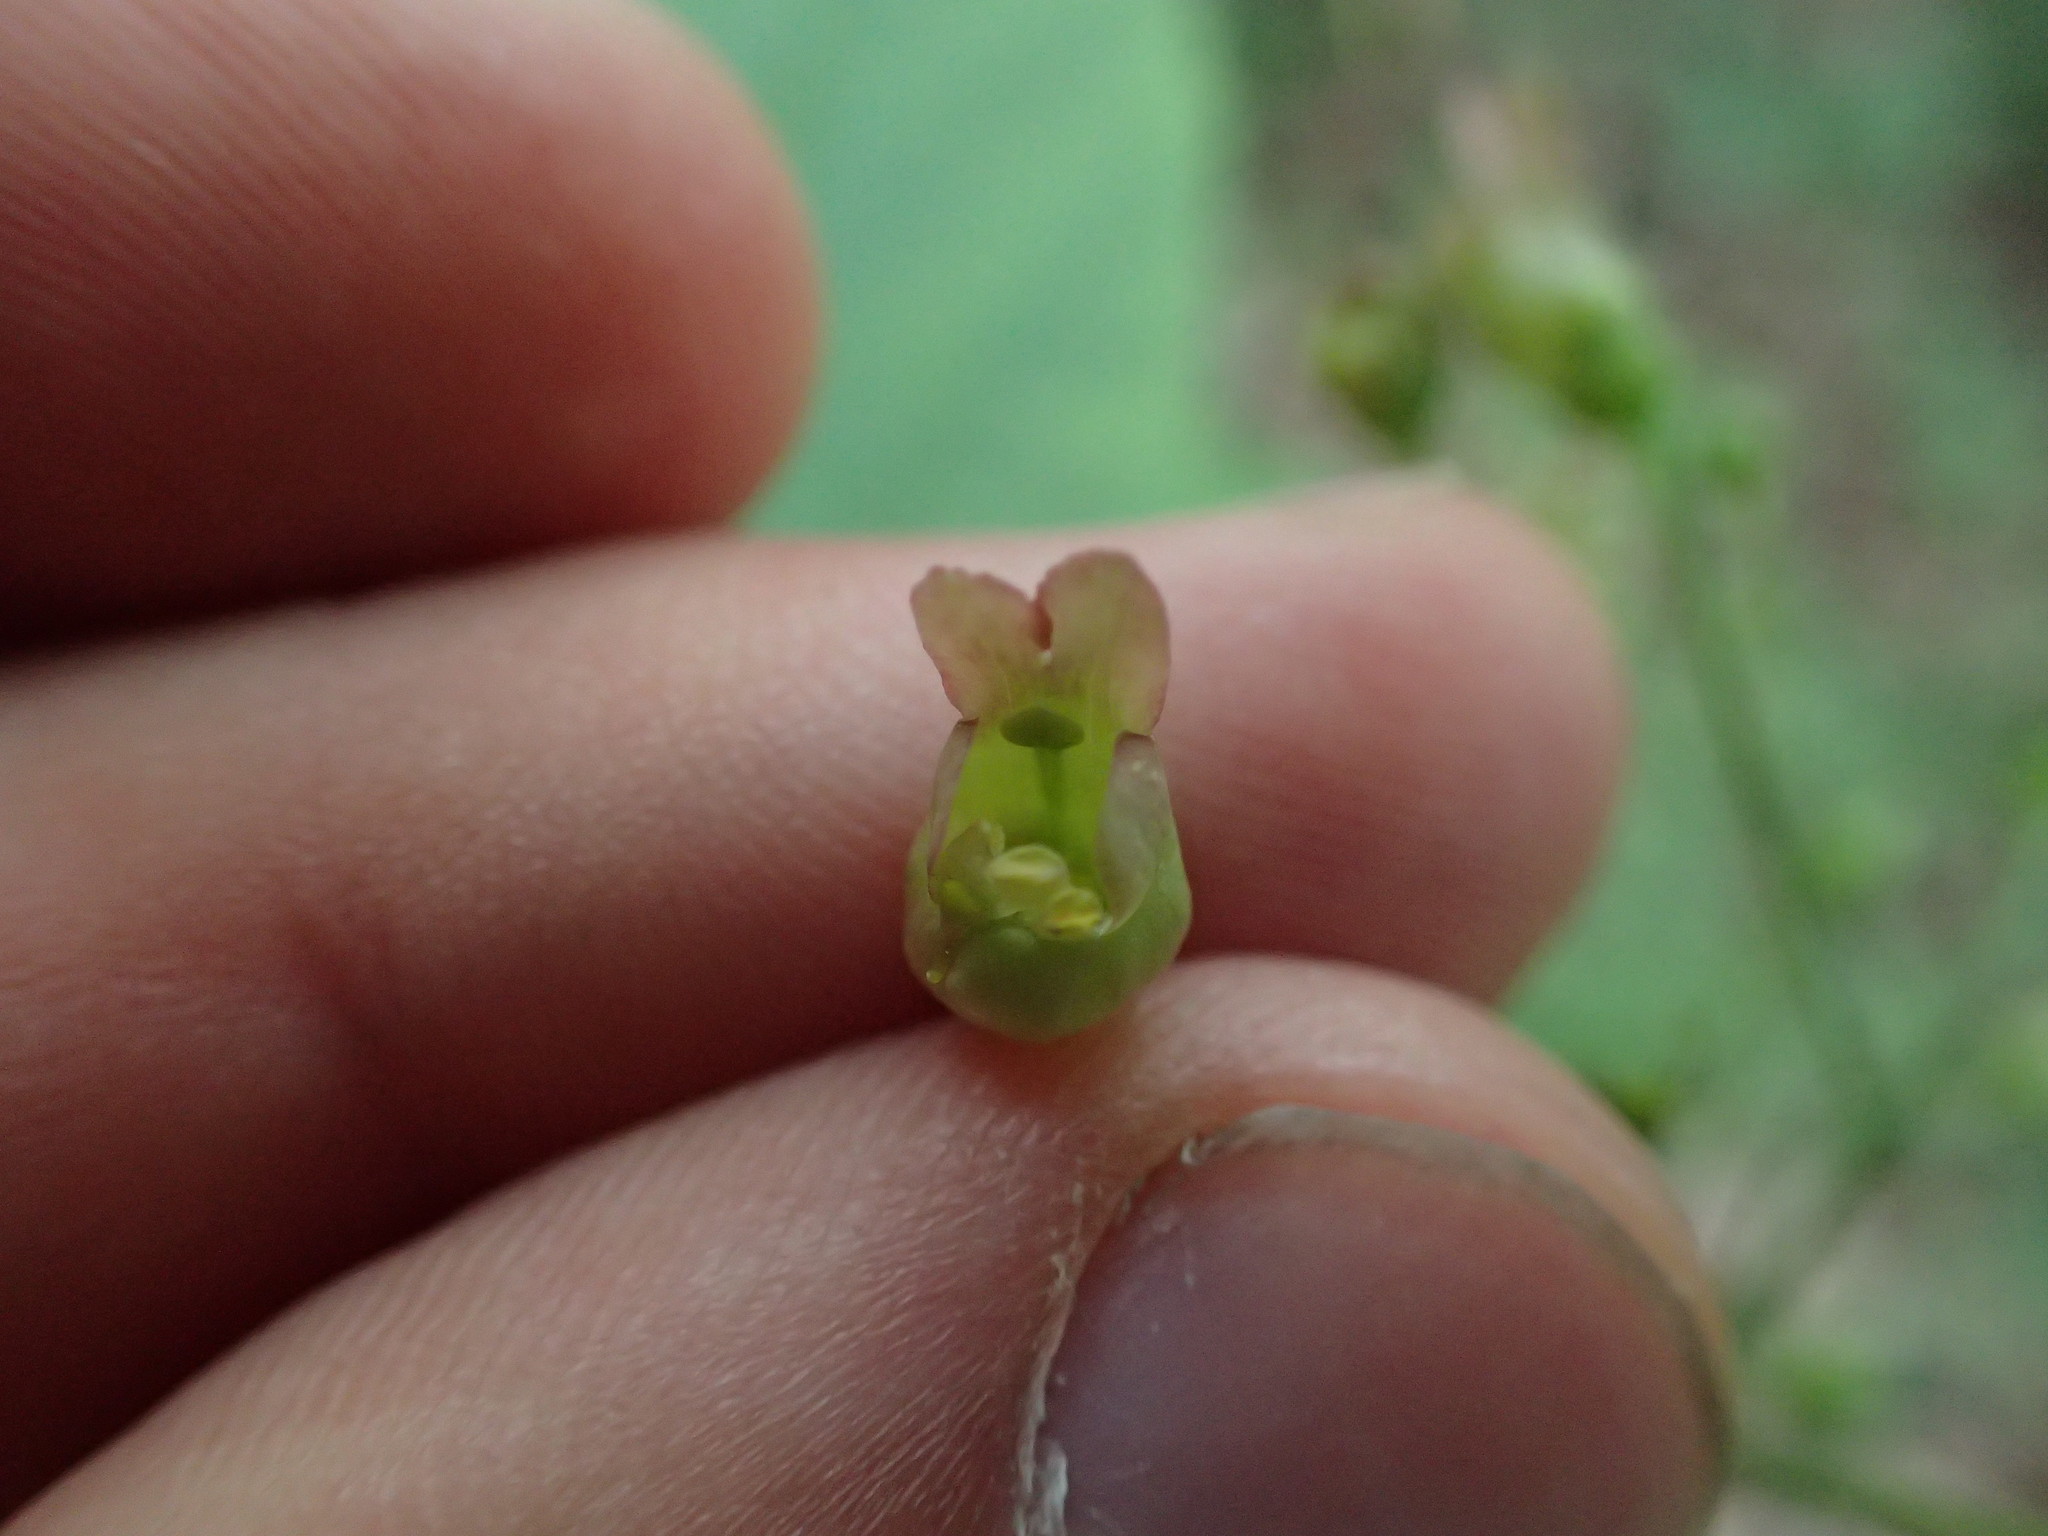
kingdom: Plantae
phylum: Tracheophyta
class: Magnoliopsida
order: Lamiales
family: Scrophulariaceae
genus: Scrophularia
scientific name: Scrophularia lanceolata
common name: American figwort
